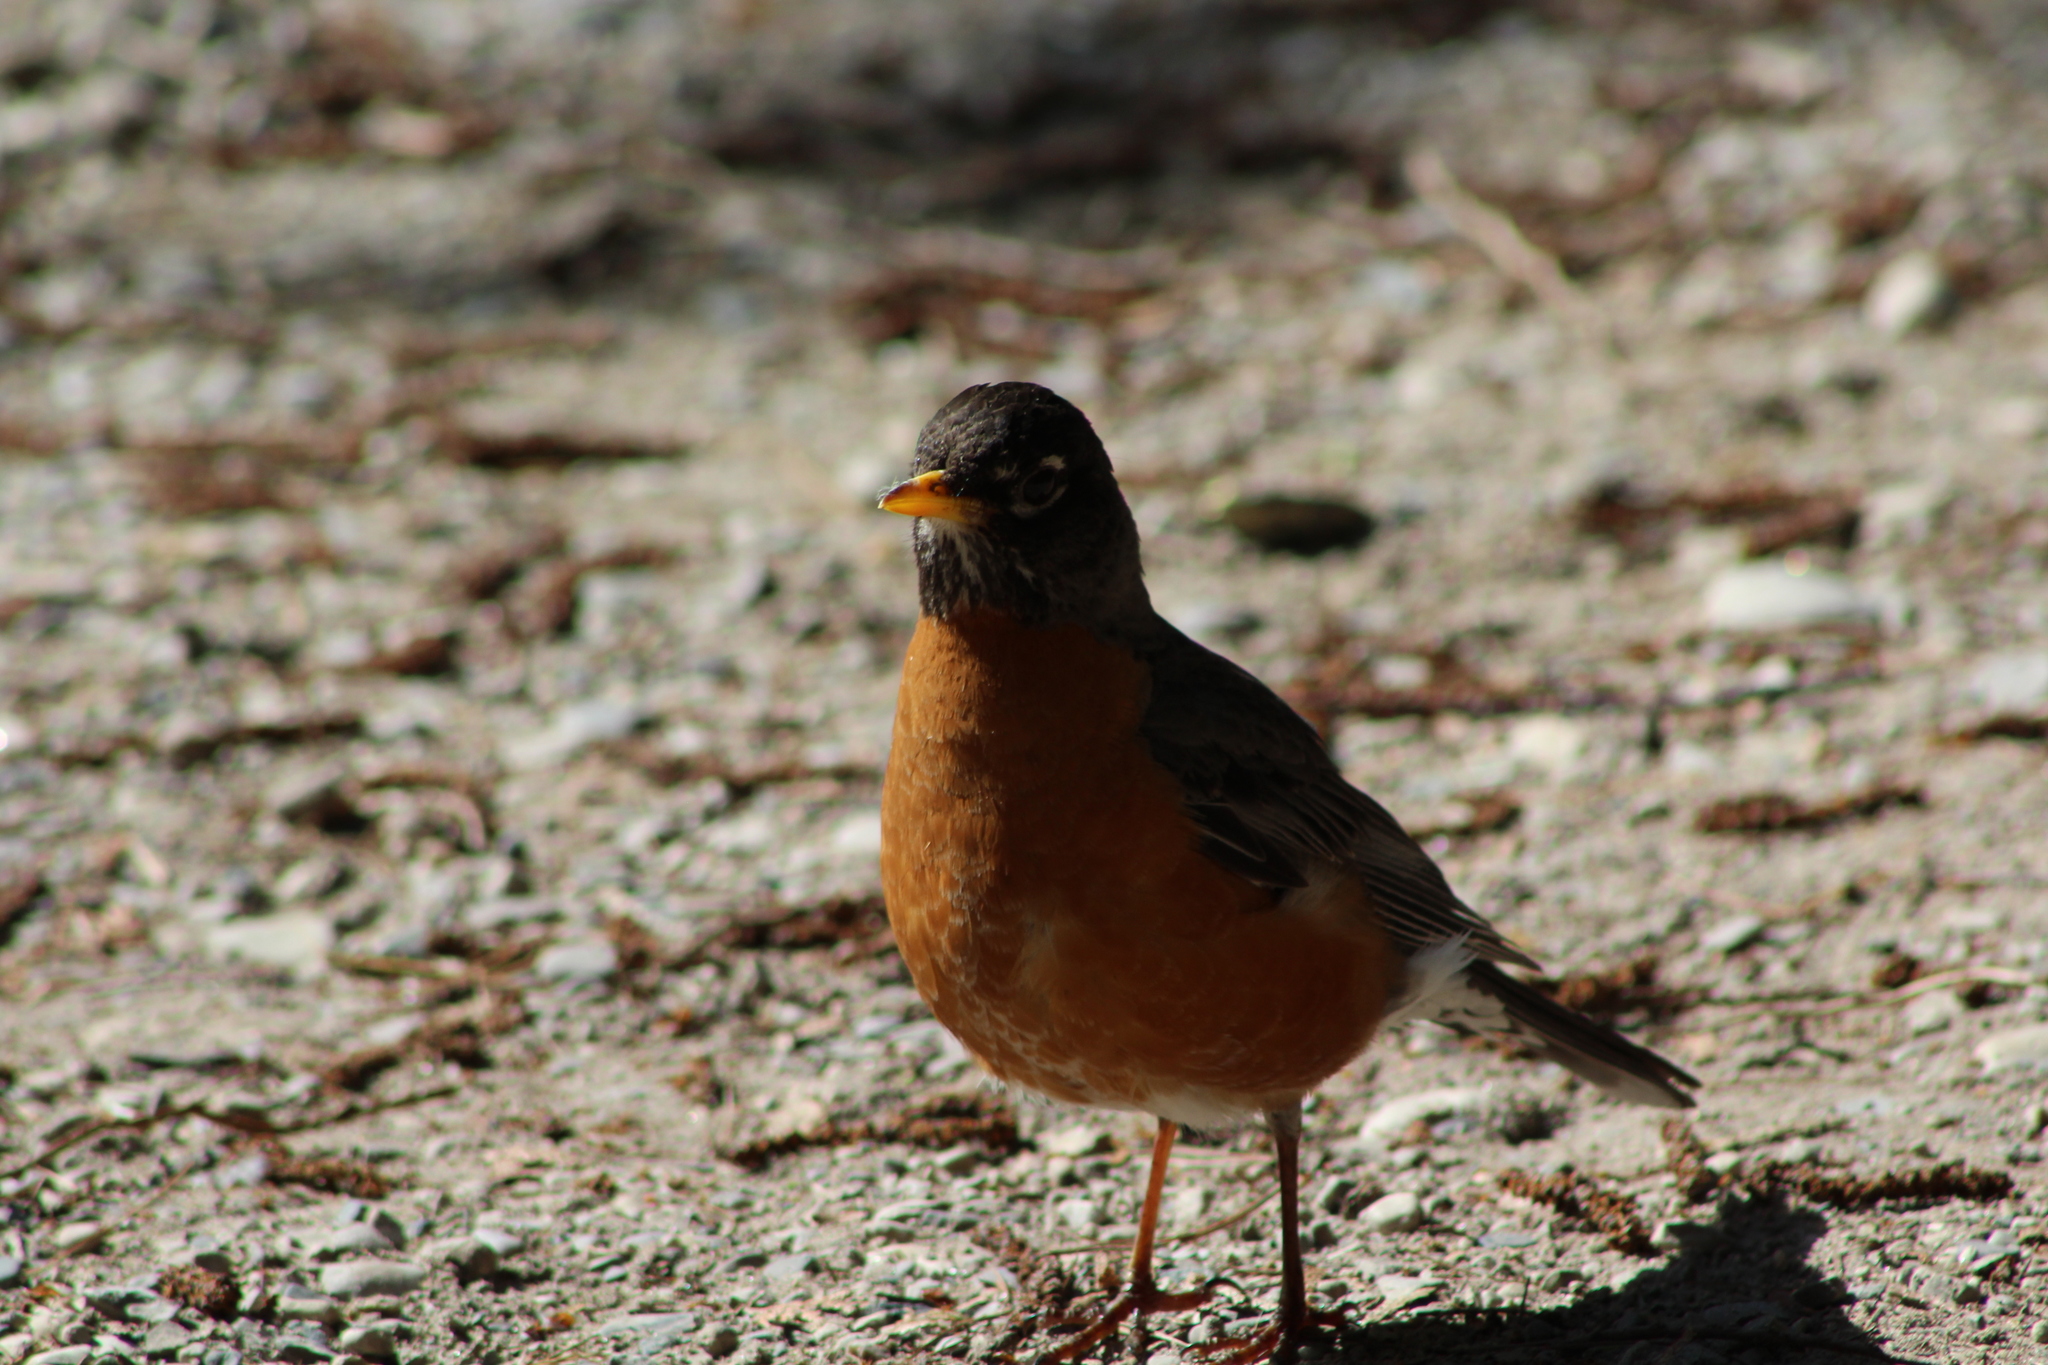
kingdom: Animalia
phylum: Chordata
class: Aves
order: Passeriformes
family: Turdidae
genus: Turdus
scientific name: Turdus migratorius
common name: American robin
